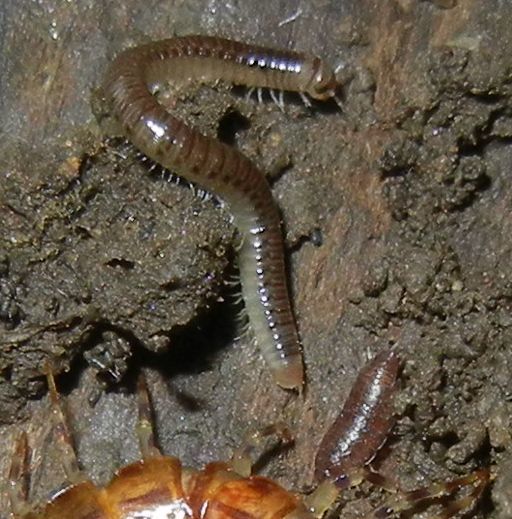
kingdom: Animalia
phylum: Arthropoda
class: Malacostraca
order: Isopoda
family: Trichoniscidae
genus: Trichoniscus
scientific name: Trichoniscus
